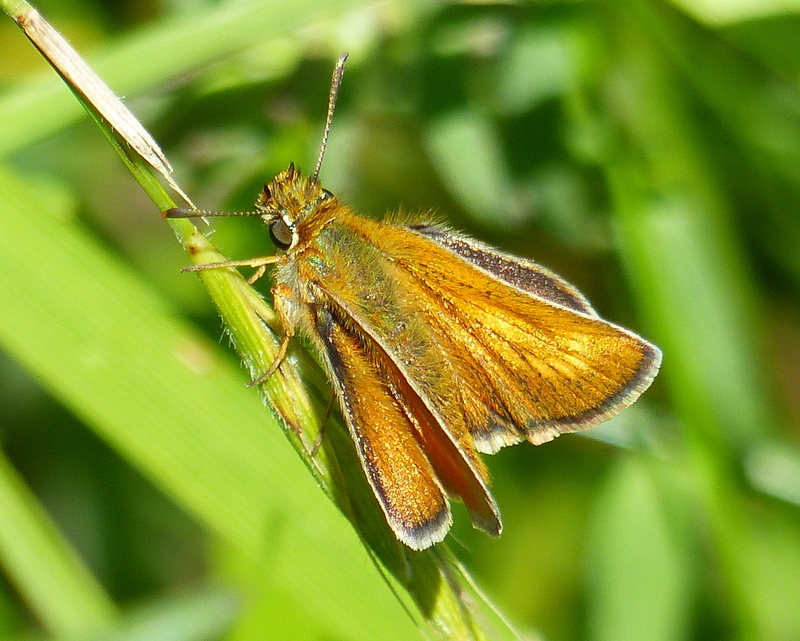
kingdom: Animalia
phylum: Arthropoda
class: Insecta
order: Lepidoptera
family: Hesperiidae
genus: Thymelicus
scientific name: Thymelicus acteon
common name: Lulworth skipper
